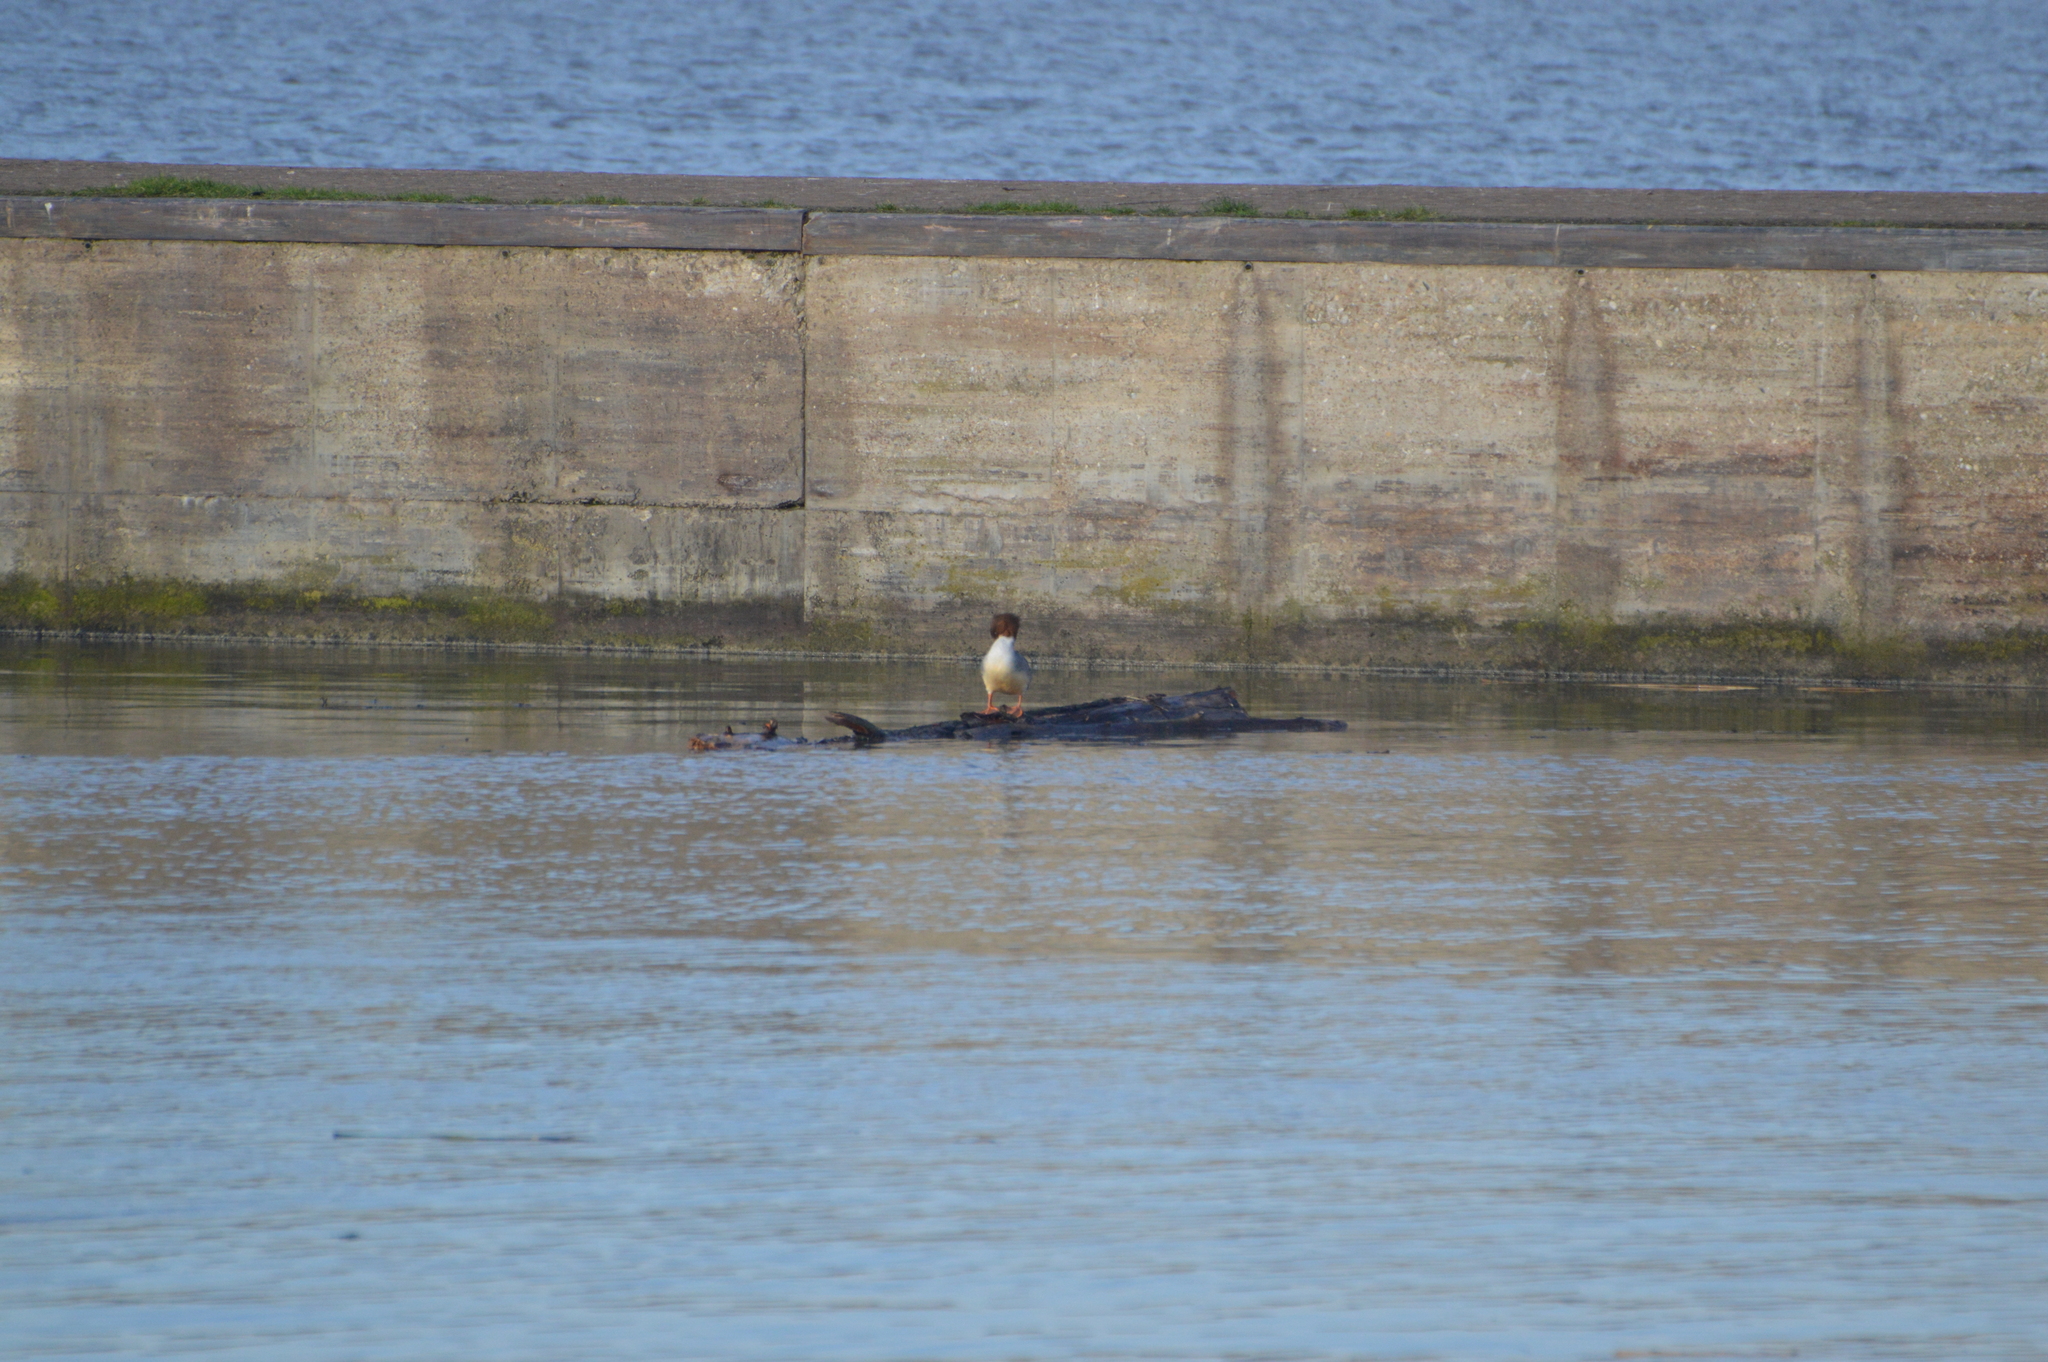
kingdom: Animalia
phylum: Chordata
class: Aves
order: Anseriformes
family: Anatidae
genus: Mergus
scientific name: Mergus merganser
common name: Common merganser
